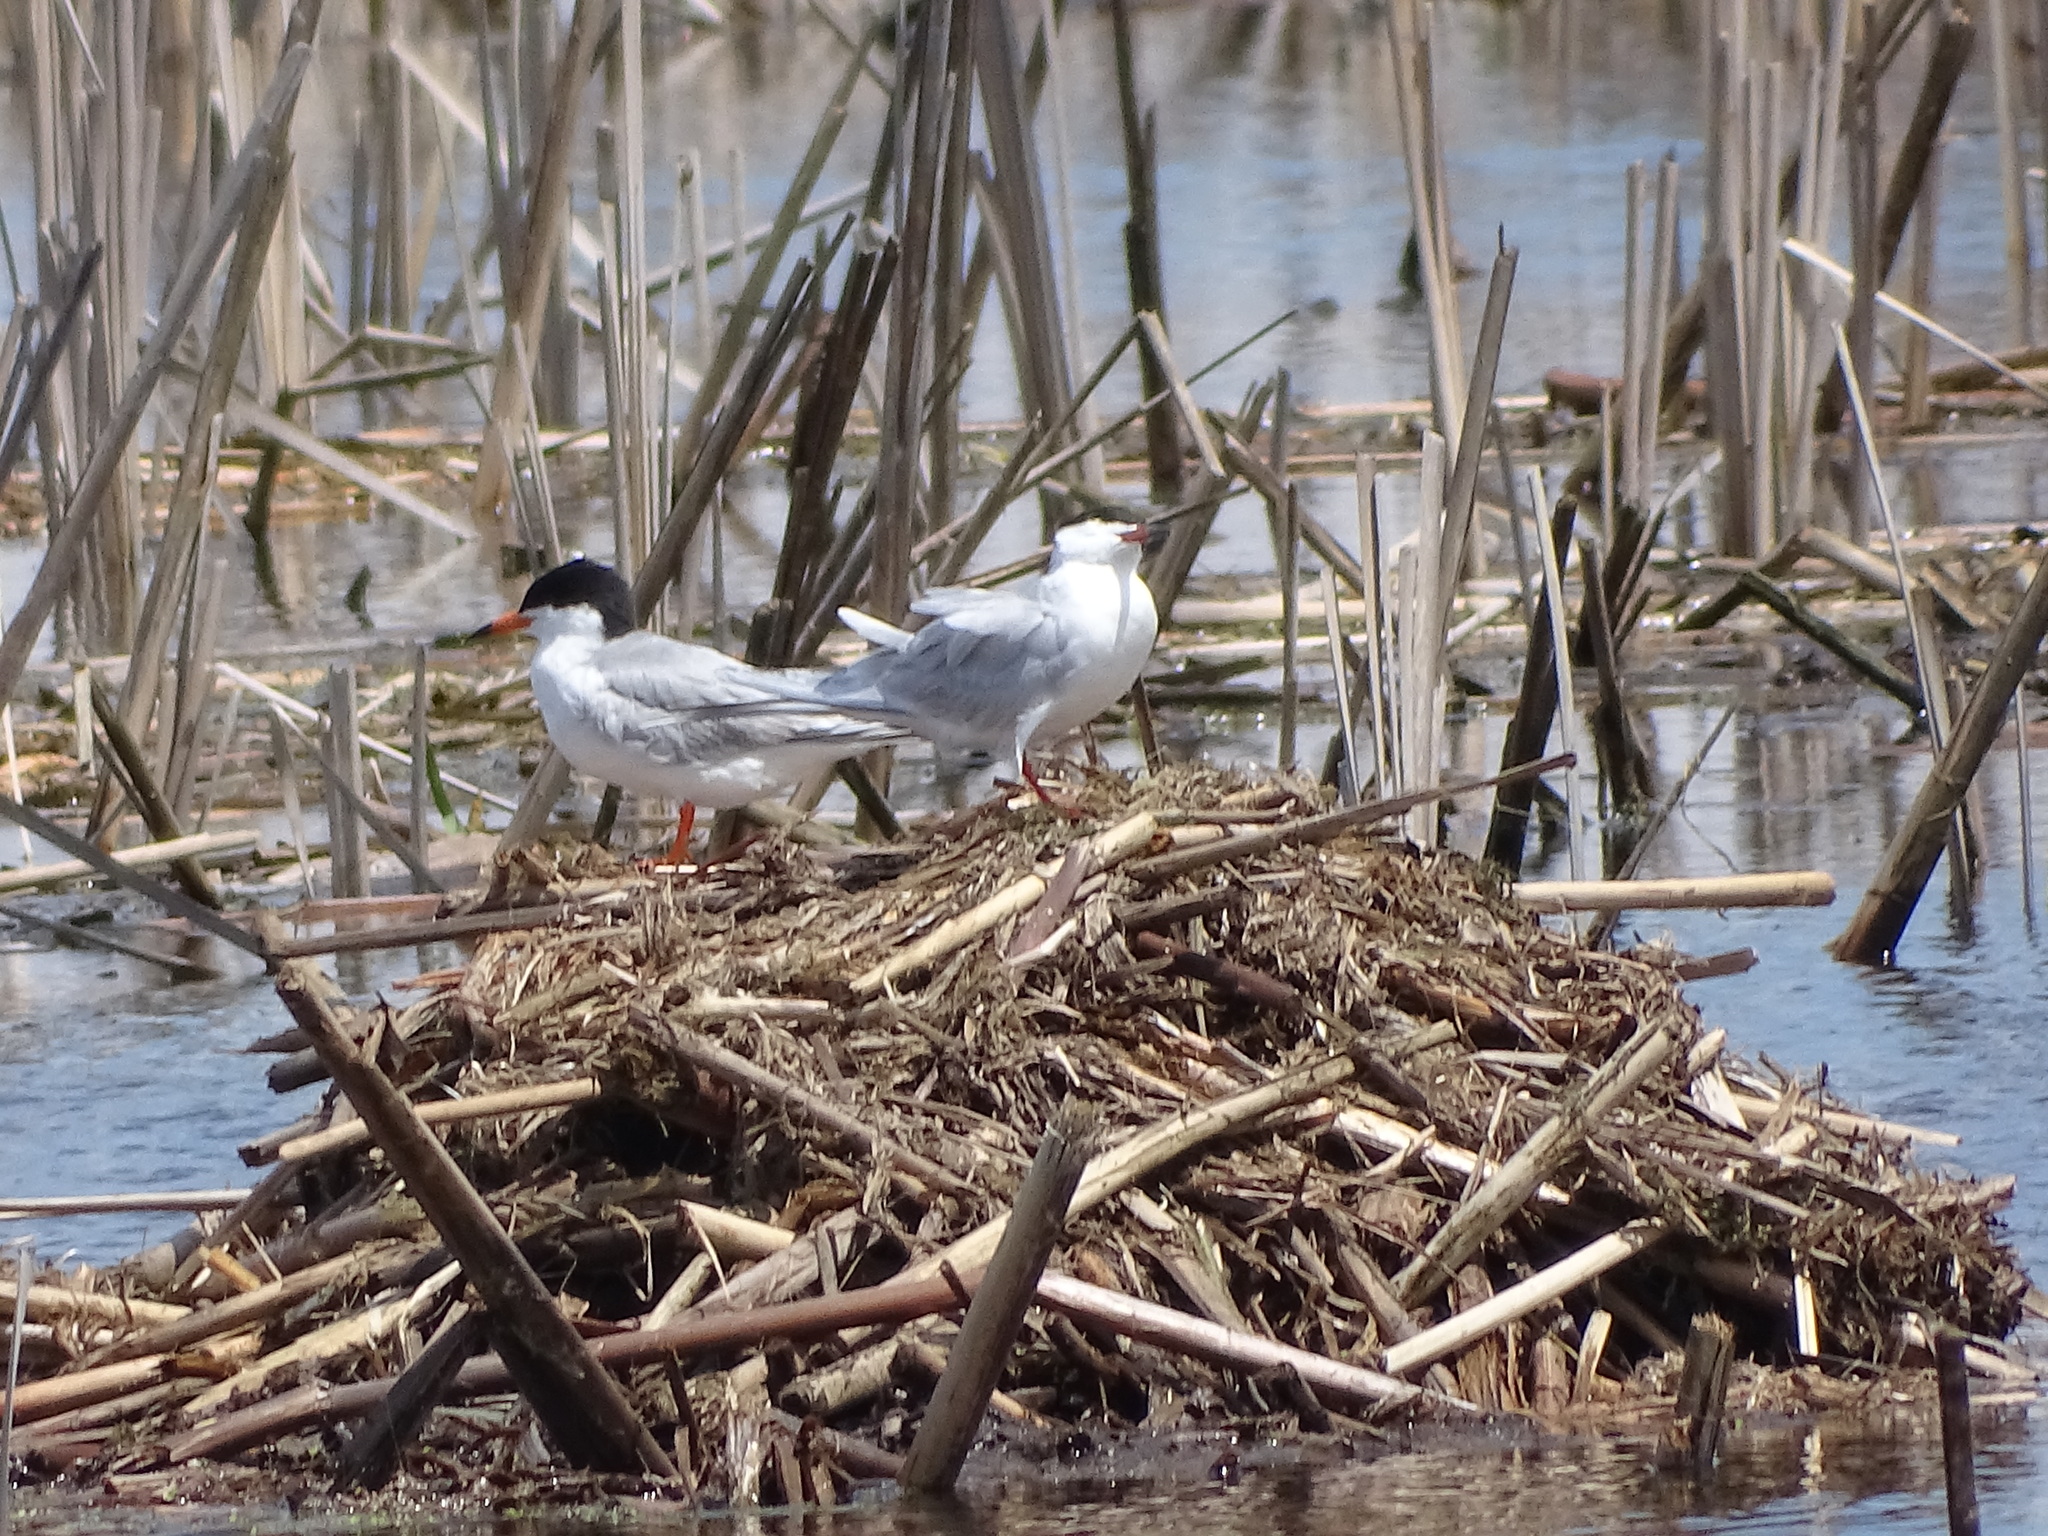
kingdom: Animalia
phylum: Chordata
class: Aves
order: Charadriiformes
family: Laridae
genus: Sterna
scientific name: Sterna forsteri
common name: Forster's tern
